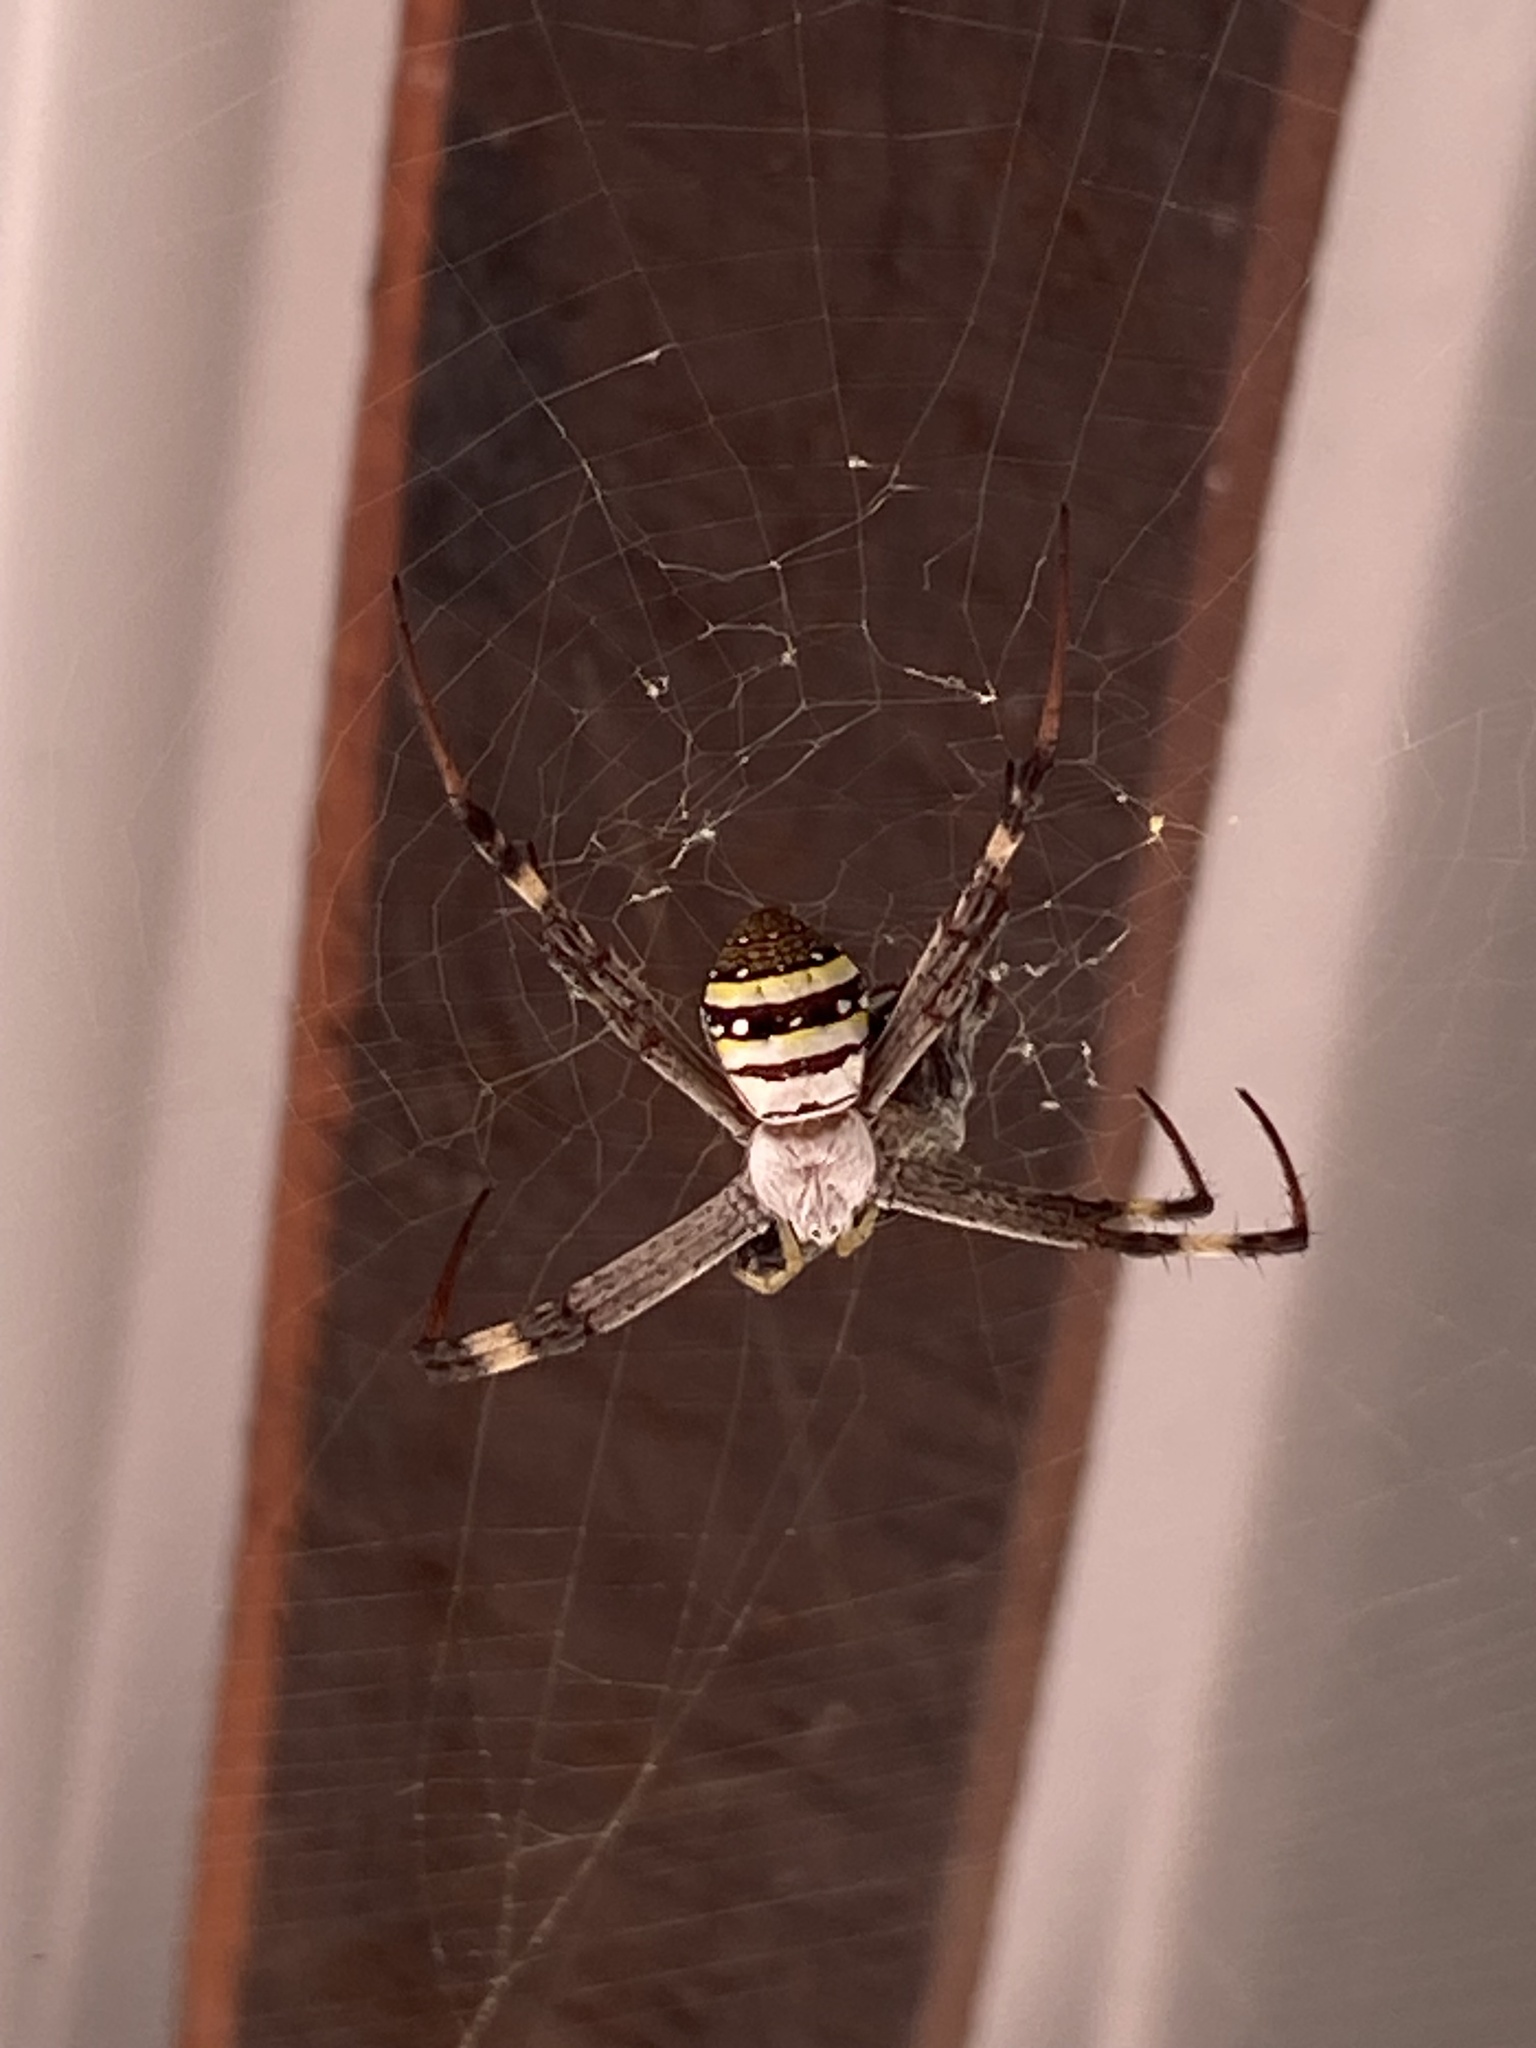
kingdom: Animalia
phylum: Arthropoda
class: Arachnida
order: Araneae
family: Araneidae
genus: Argiope
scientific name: Argiope keyserlingi
